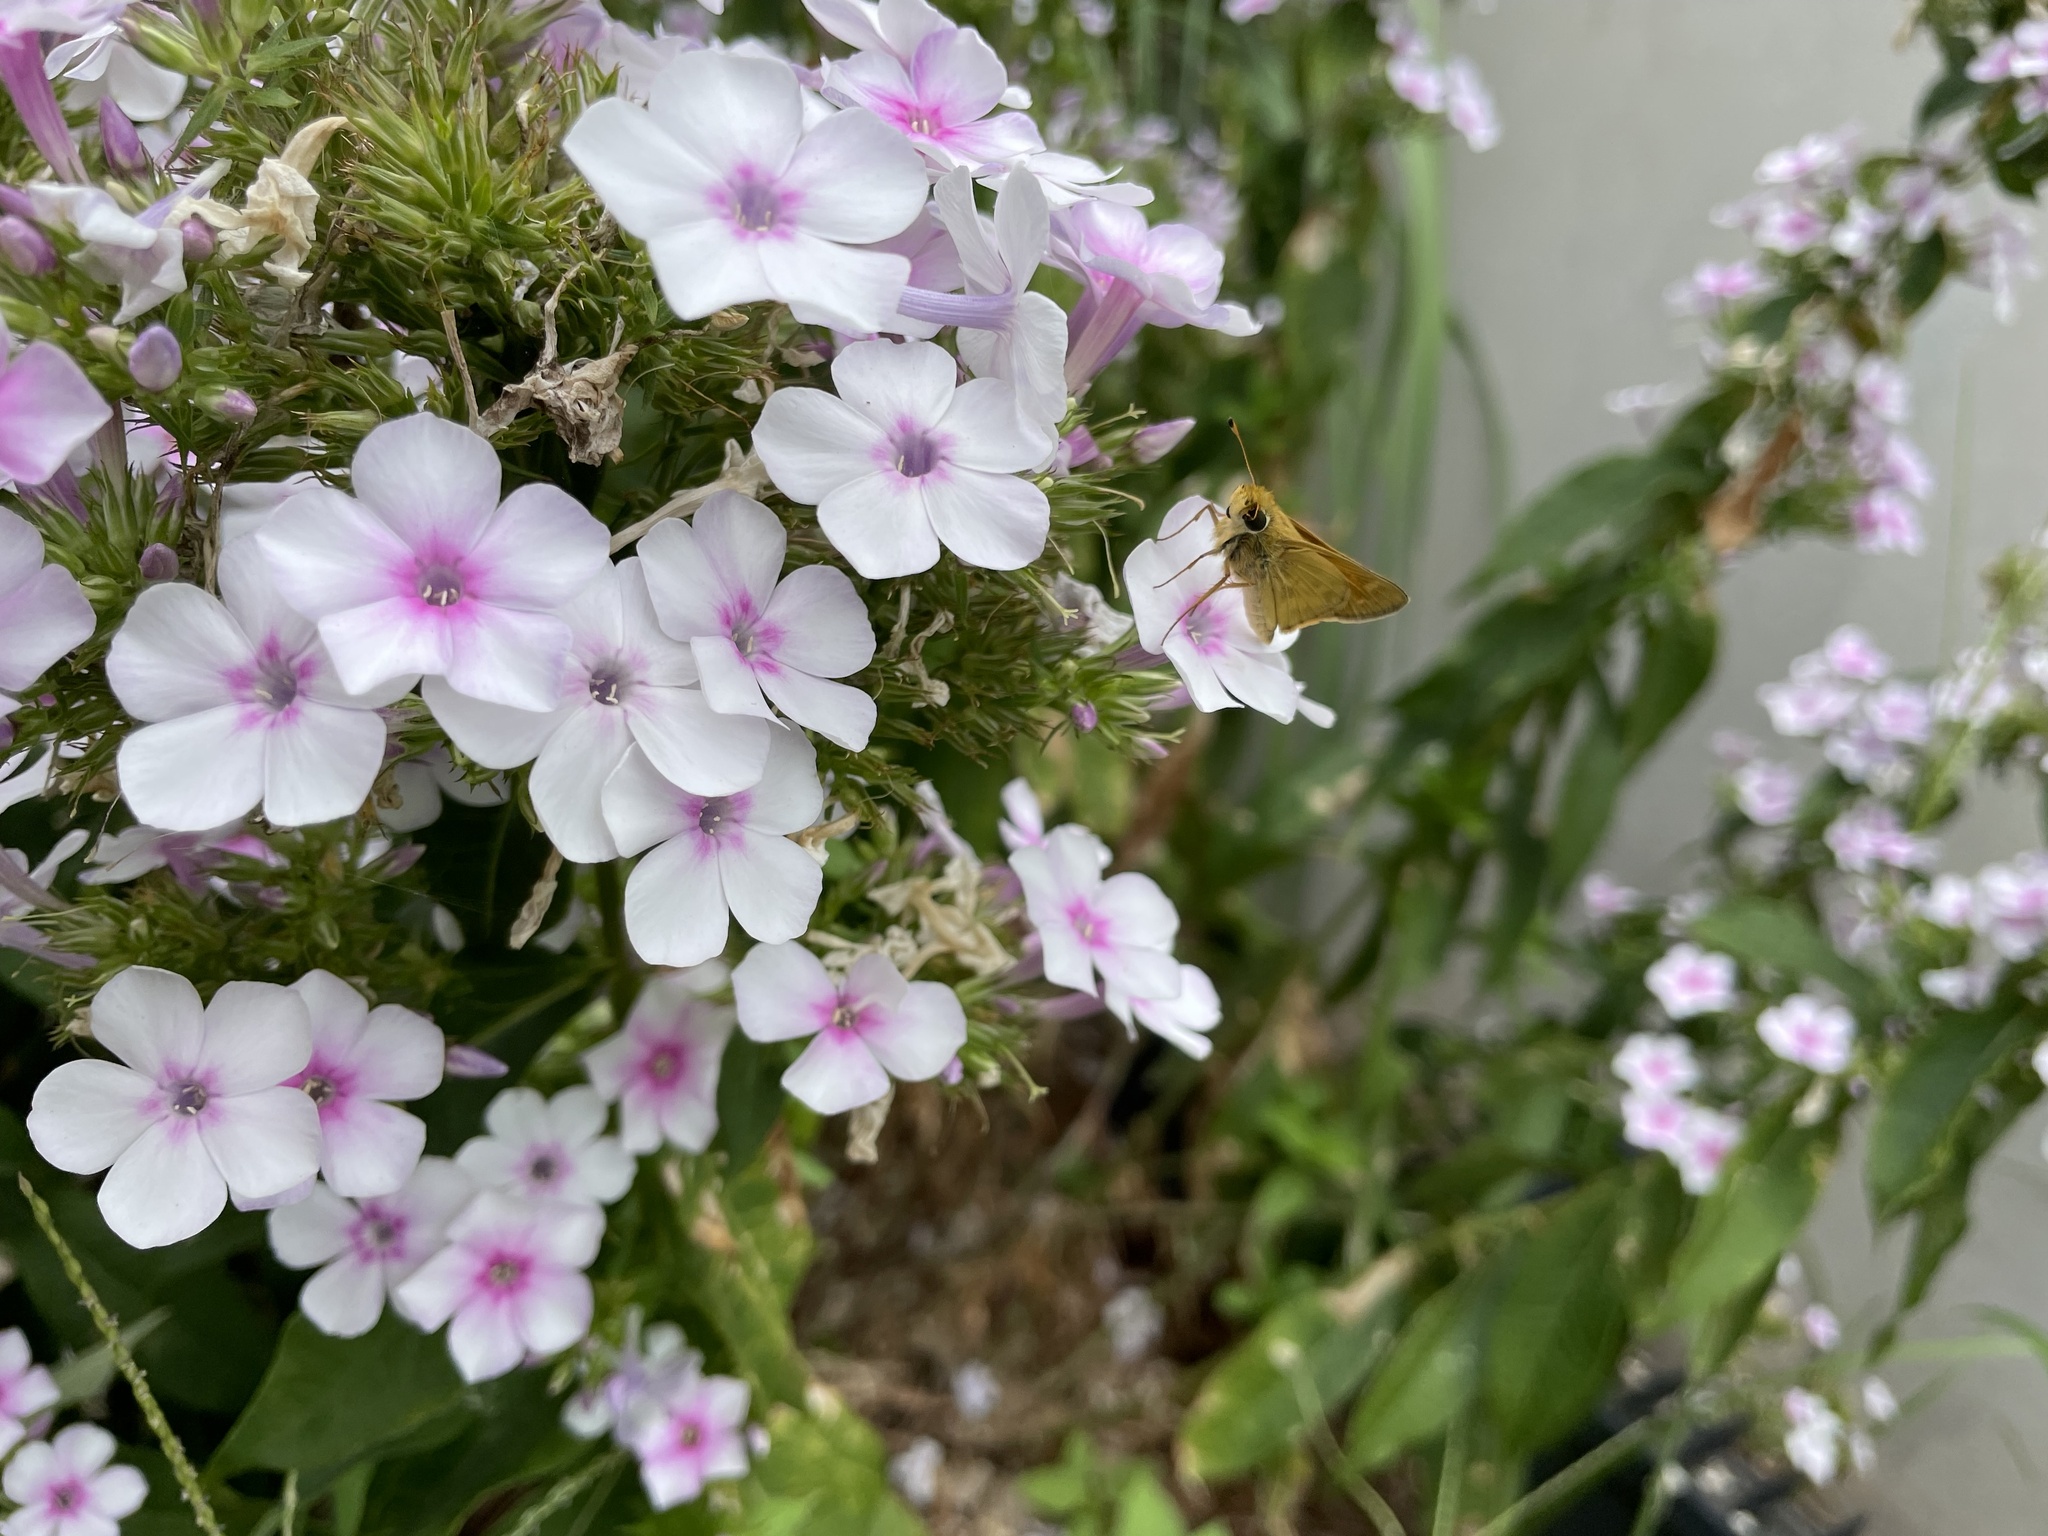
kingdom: Animalia
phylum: Arthropoda
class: Insecta
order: Lepidoptera
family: Hesperiidae
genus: Atalopedes
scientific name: Atalopedes
